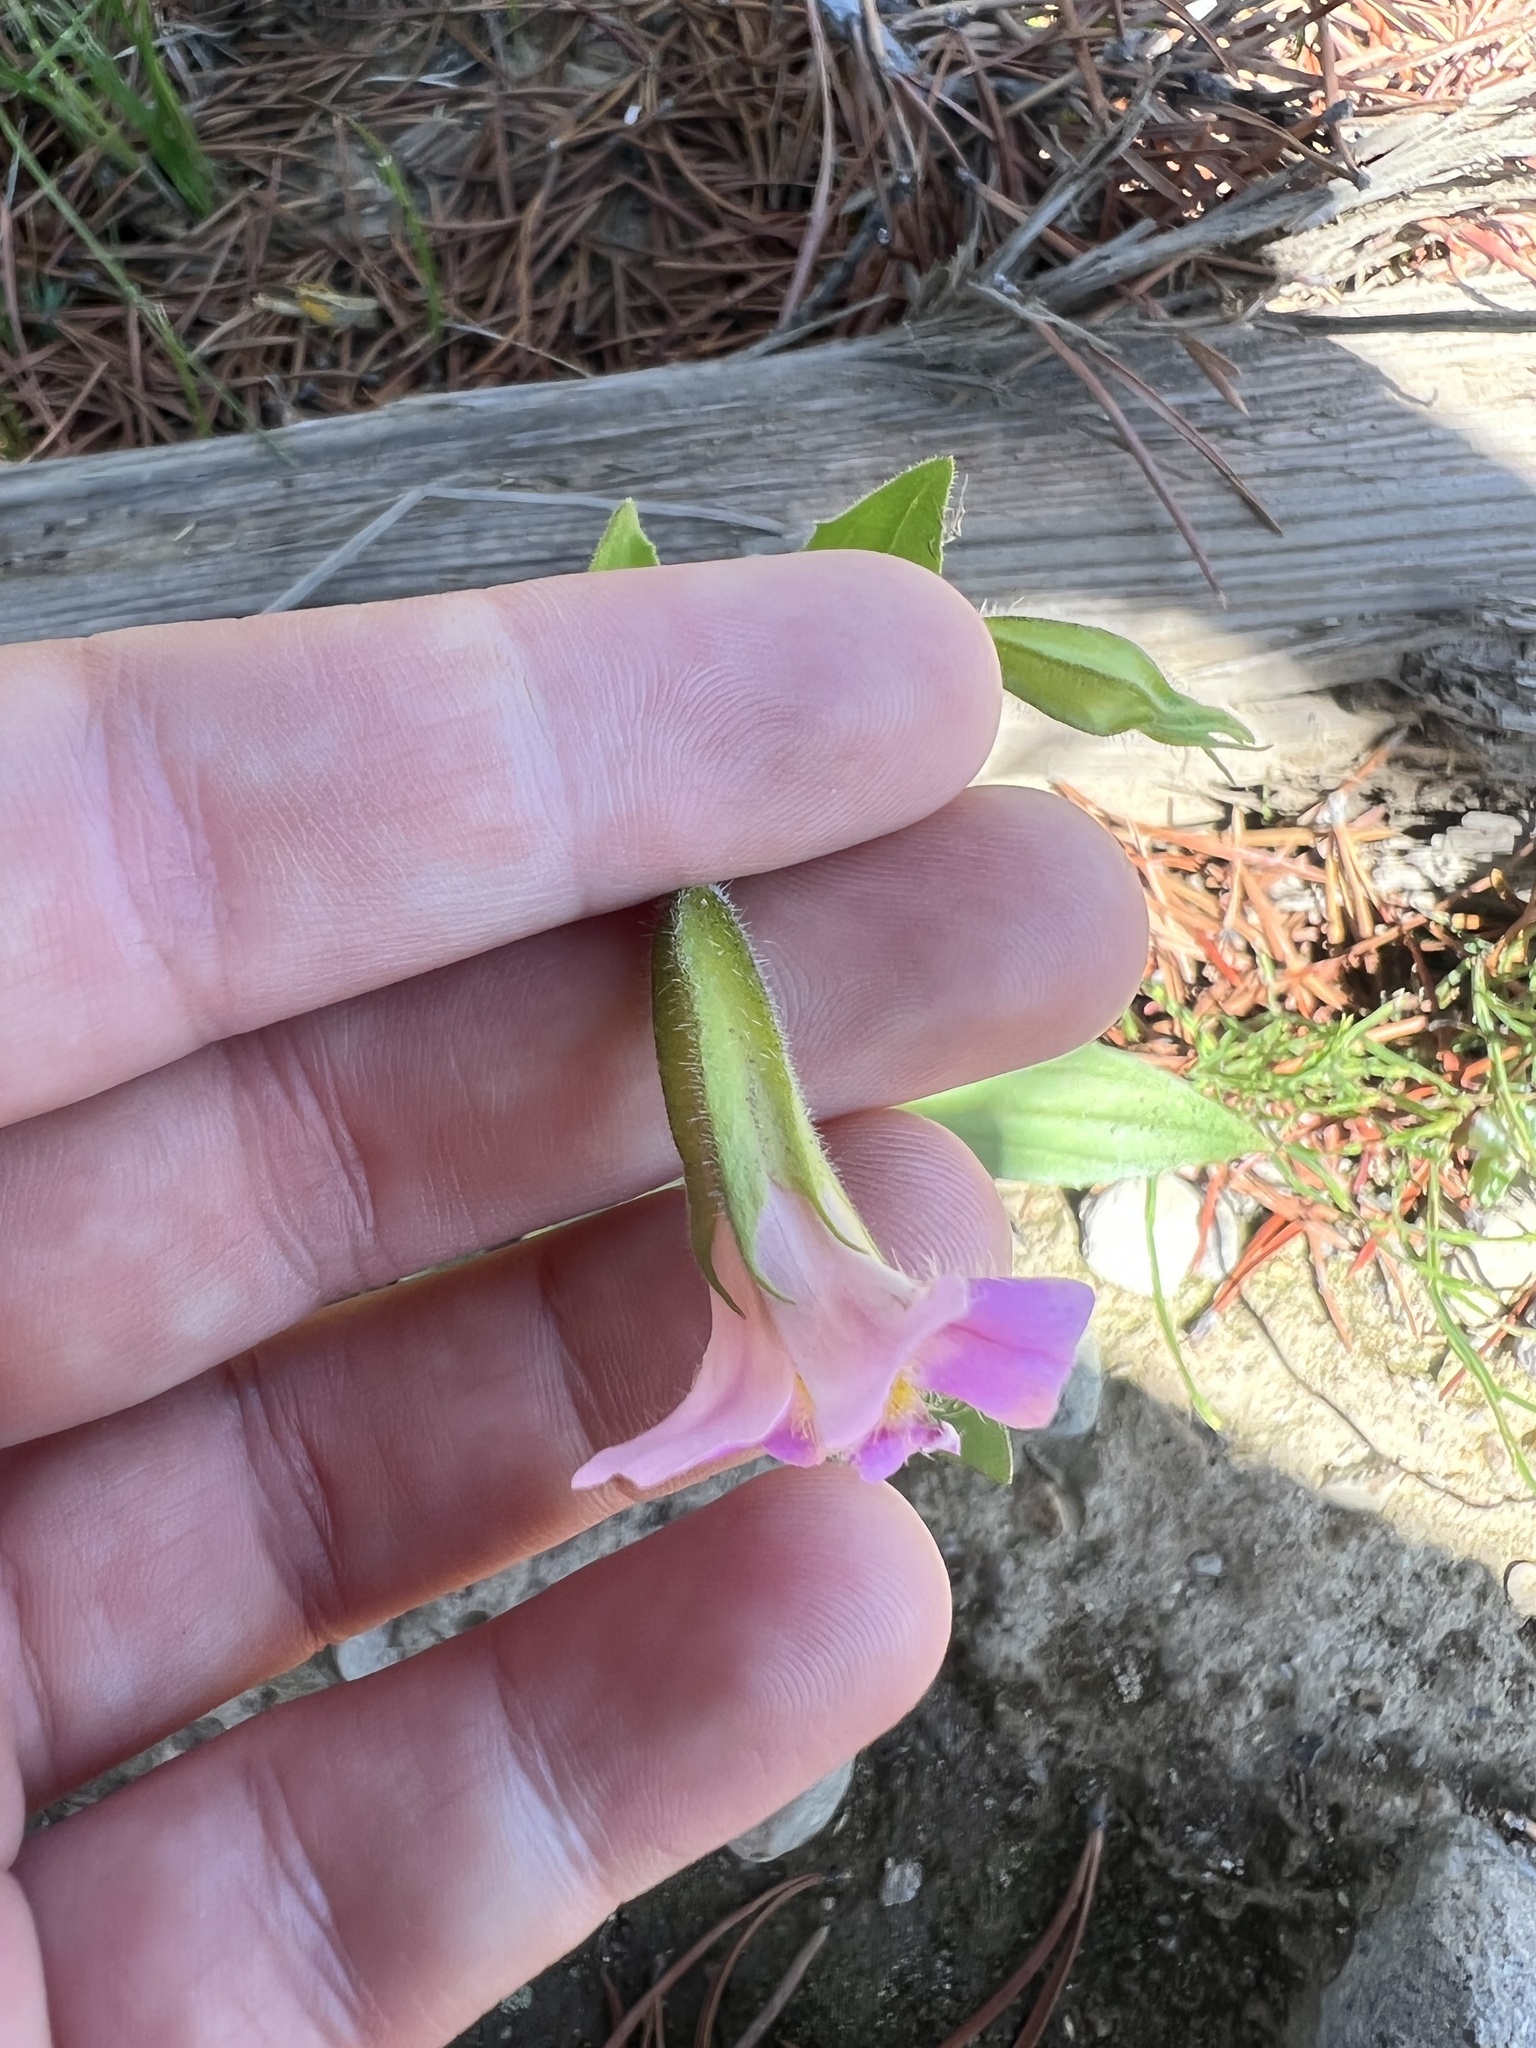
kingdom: Plantae
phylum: Tracheophyta
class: Magnoliopsida
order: Lamiales
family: Phrymaceae
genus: Erythranthe
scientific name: Erythranthe erubescens
